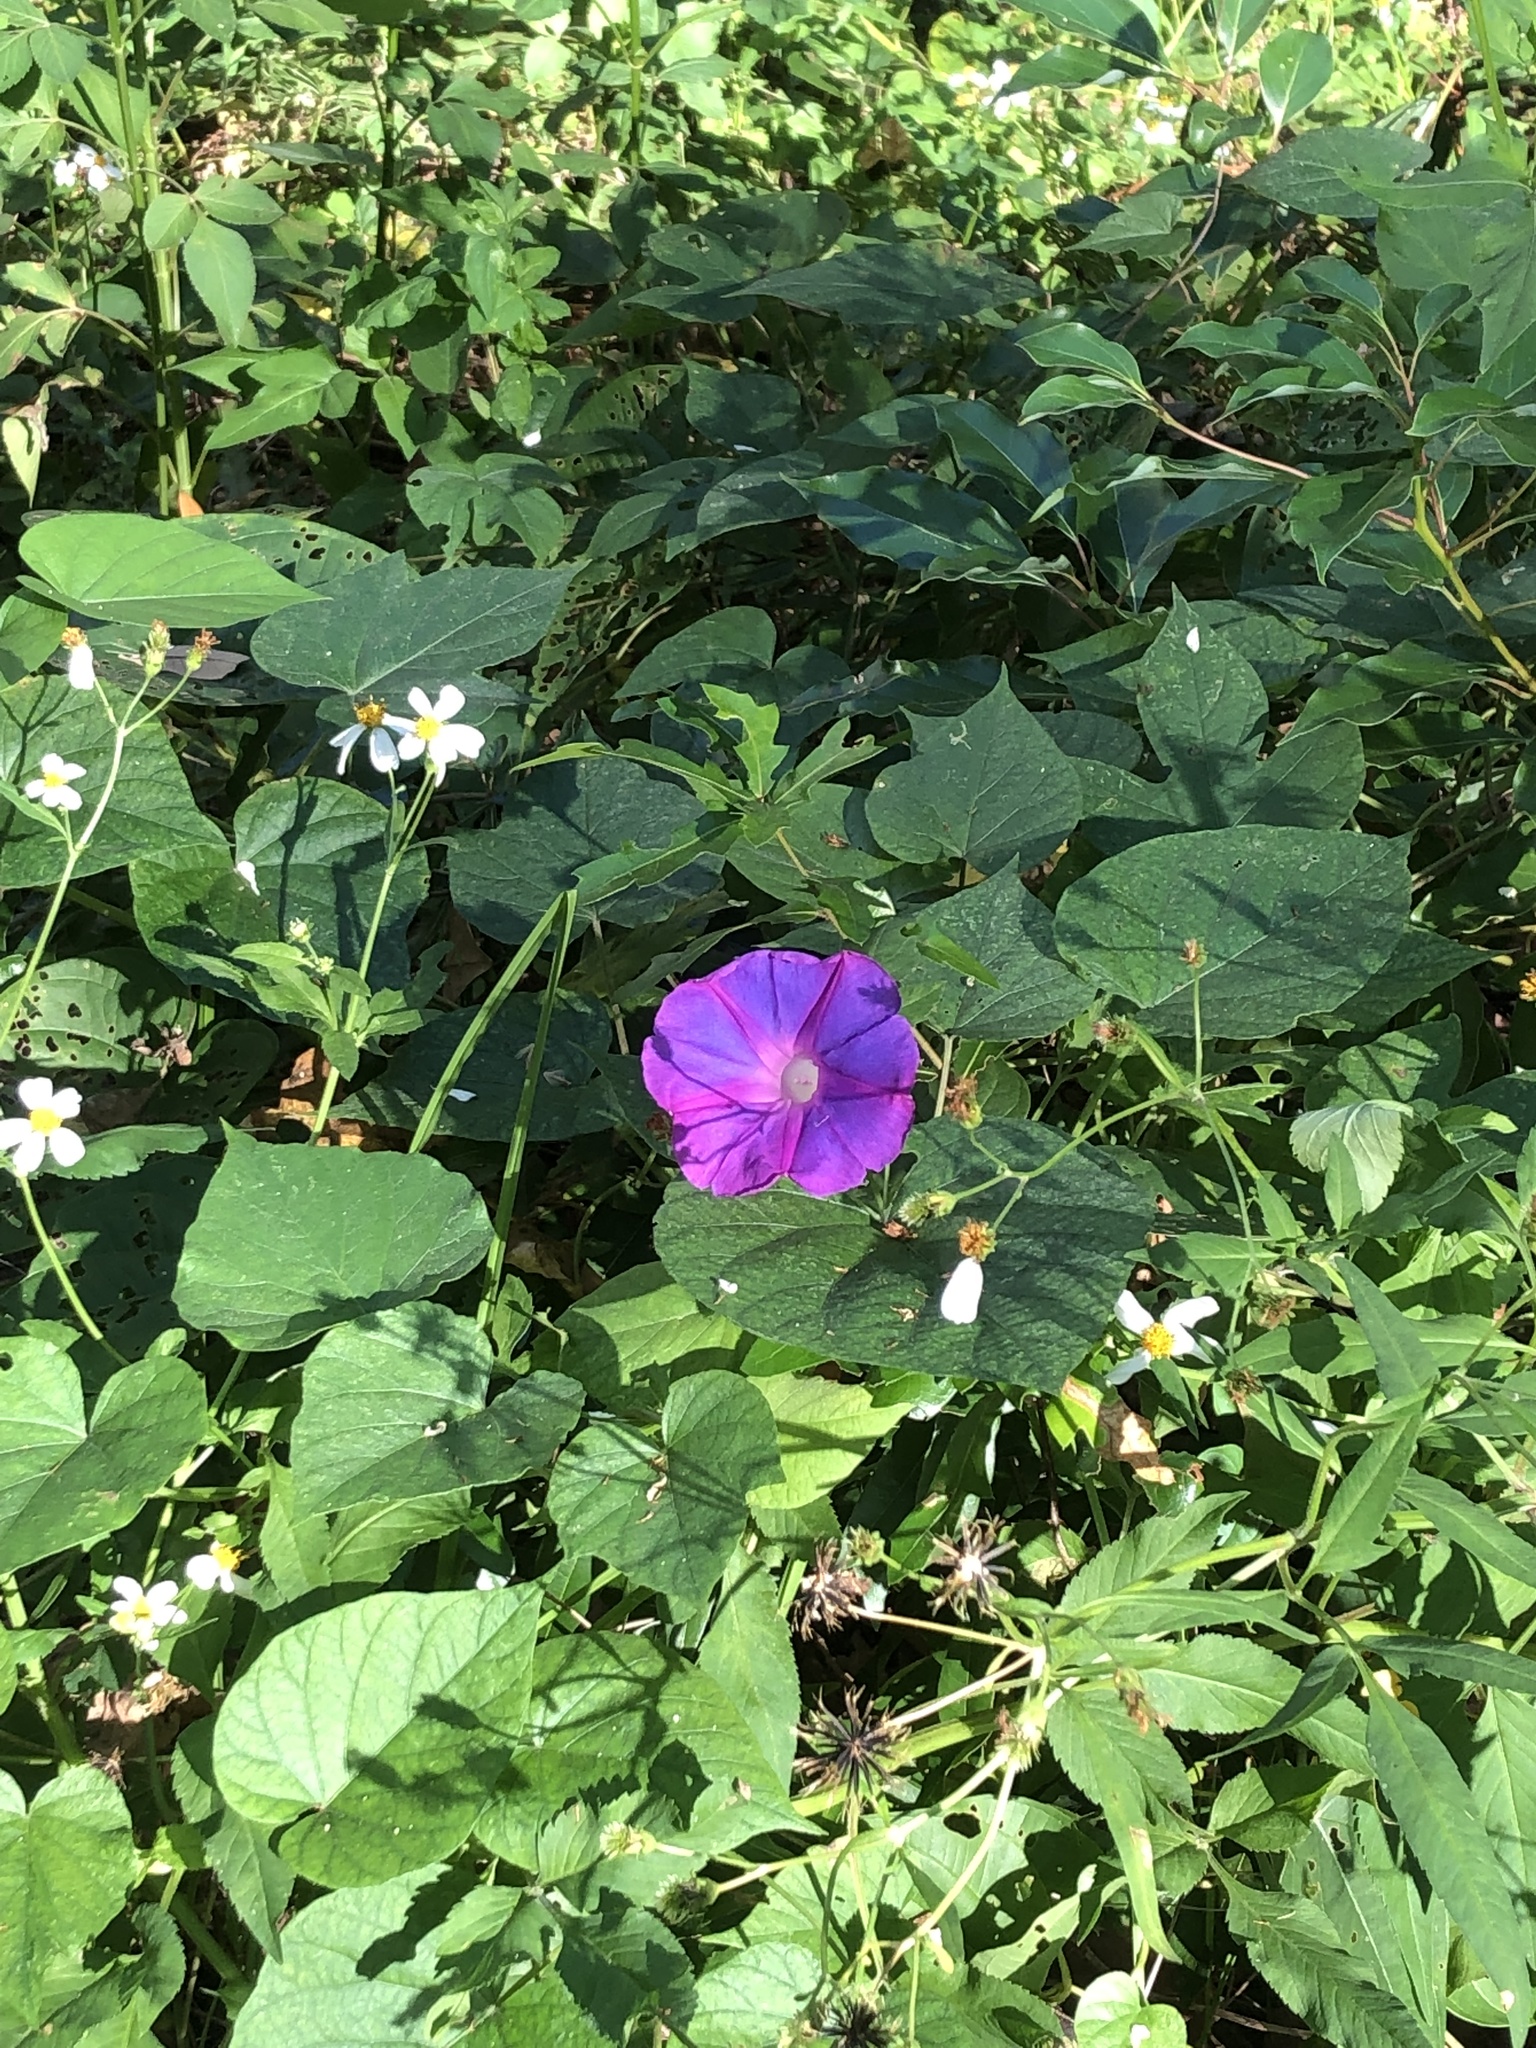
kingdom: Plantae
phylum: Tracheophyta
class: Magnoliopsida
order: Solanales
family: Convolvulaceae
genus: Ipomoea
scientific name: Ipomoea indica
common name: Blue dawnflower
